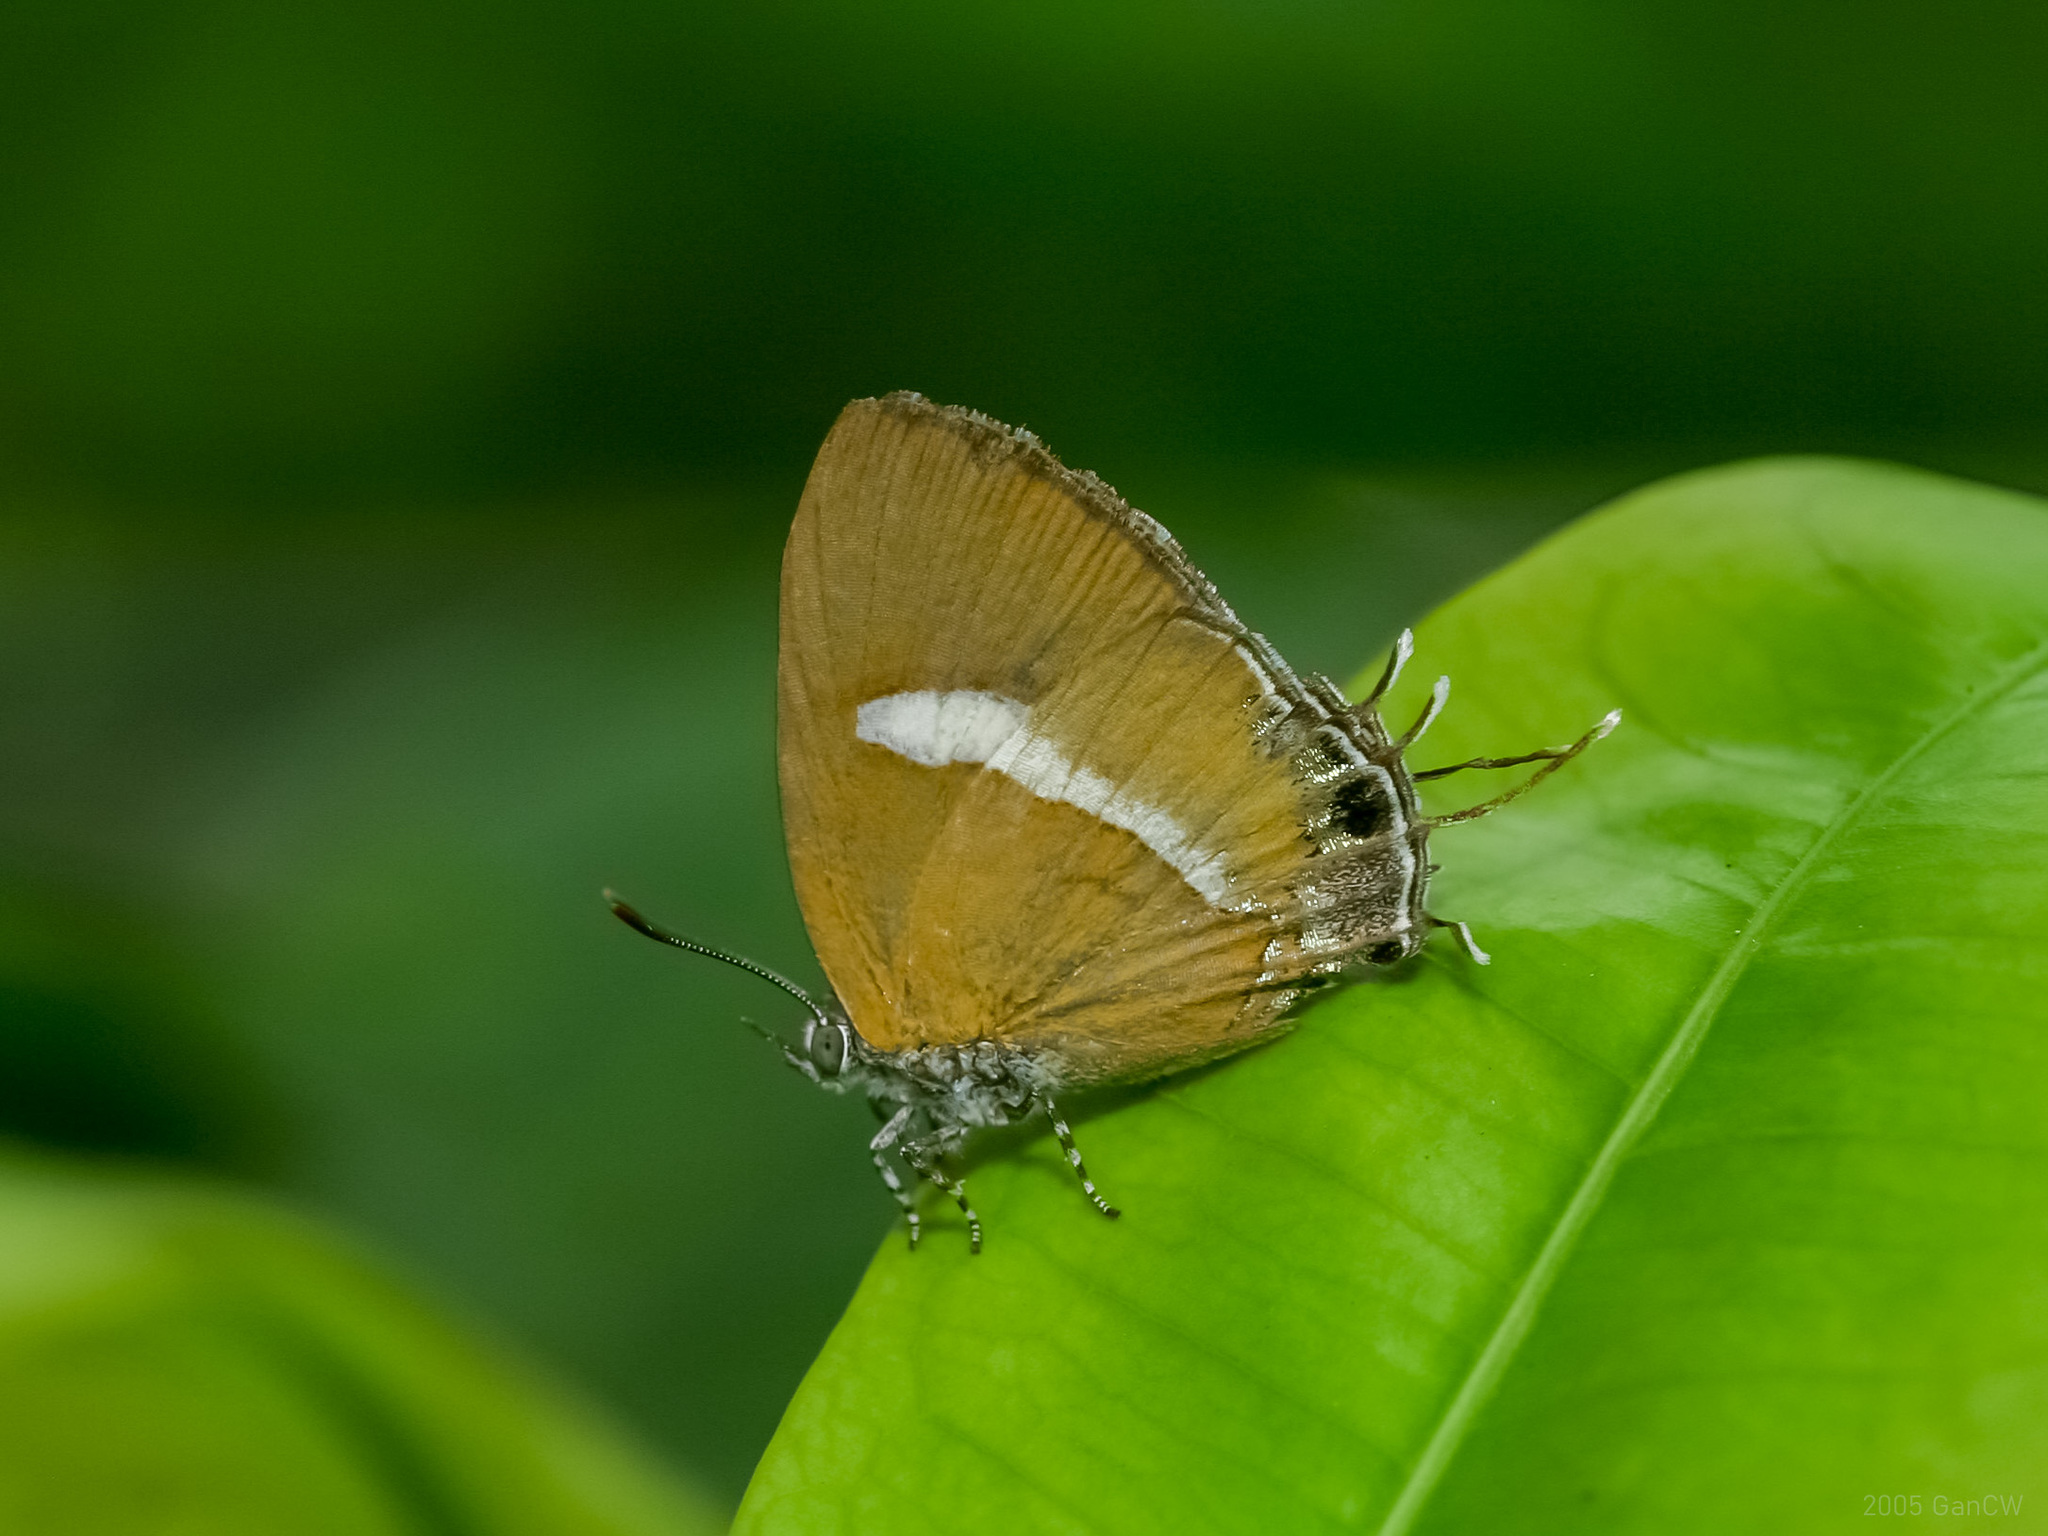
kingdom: Animalia
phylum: Arthropoda
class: Insecta
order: Lepidoptera
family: Lycaenidae
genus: Horaga
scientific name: Horaga syrinx
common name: Ambon onyx
